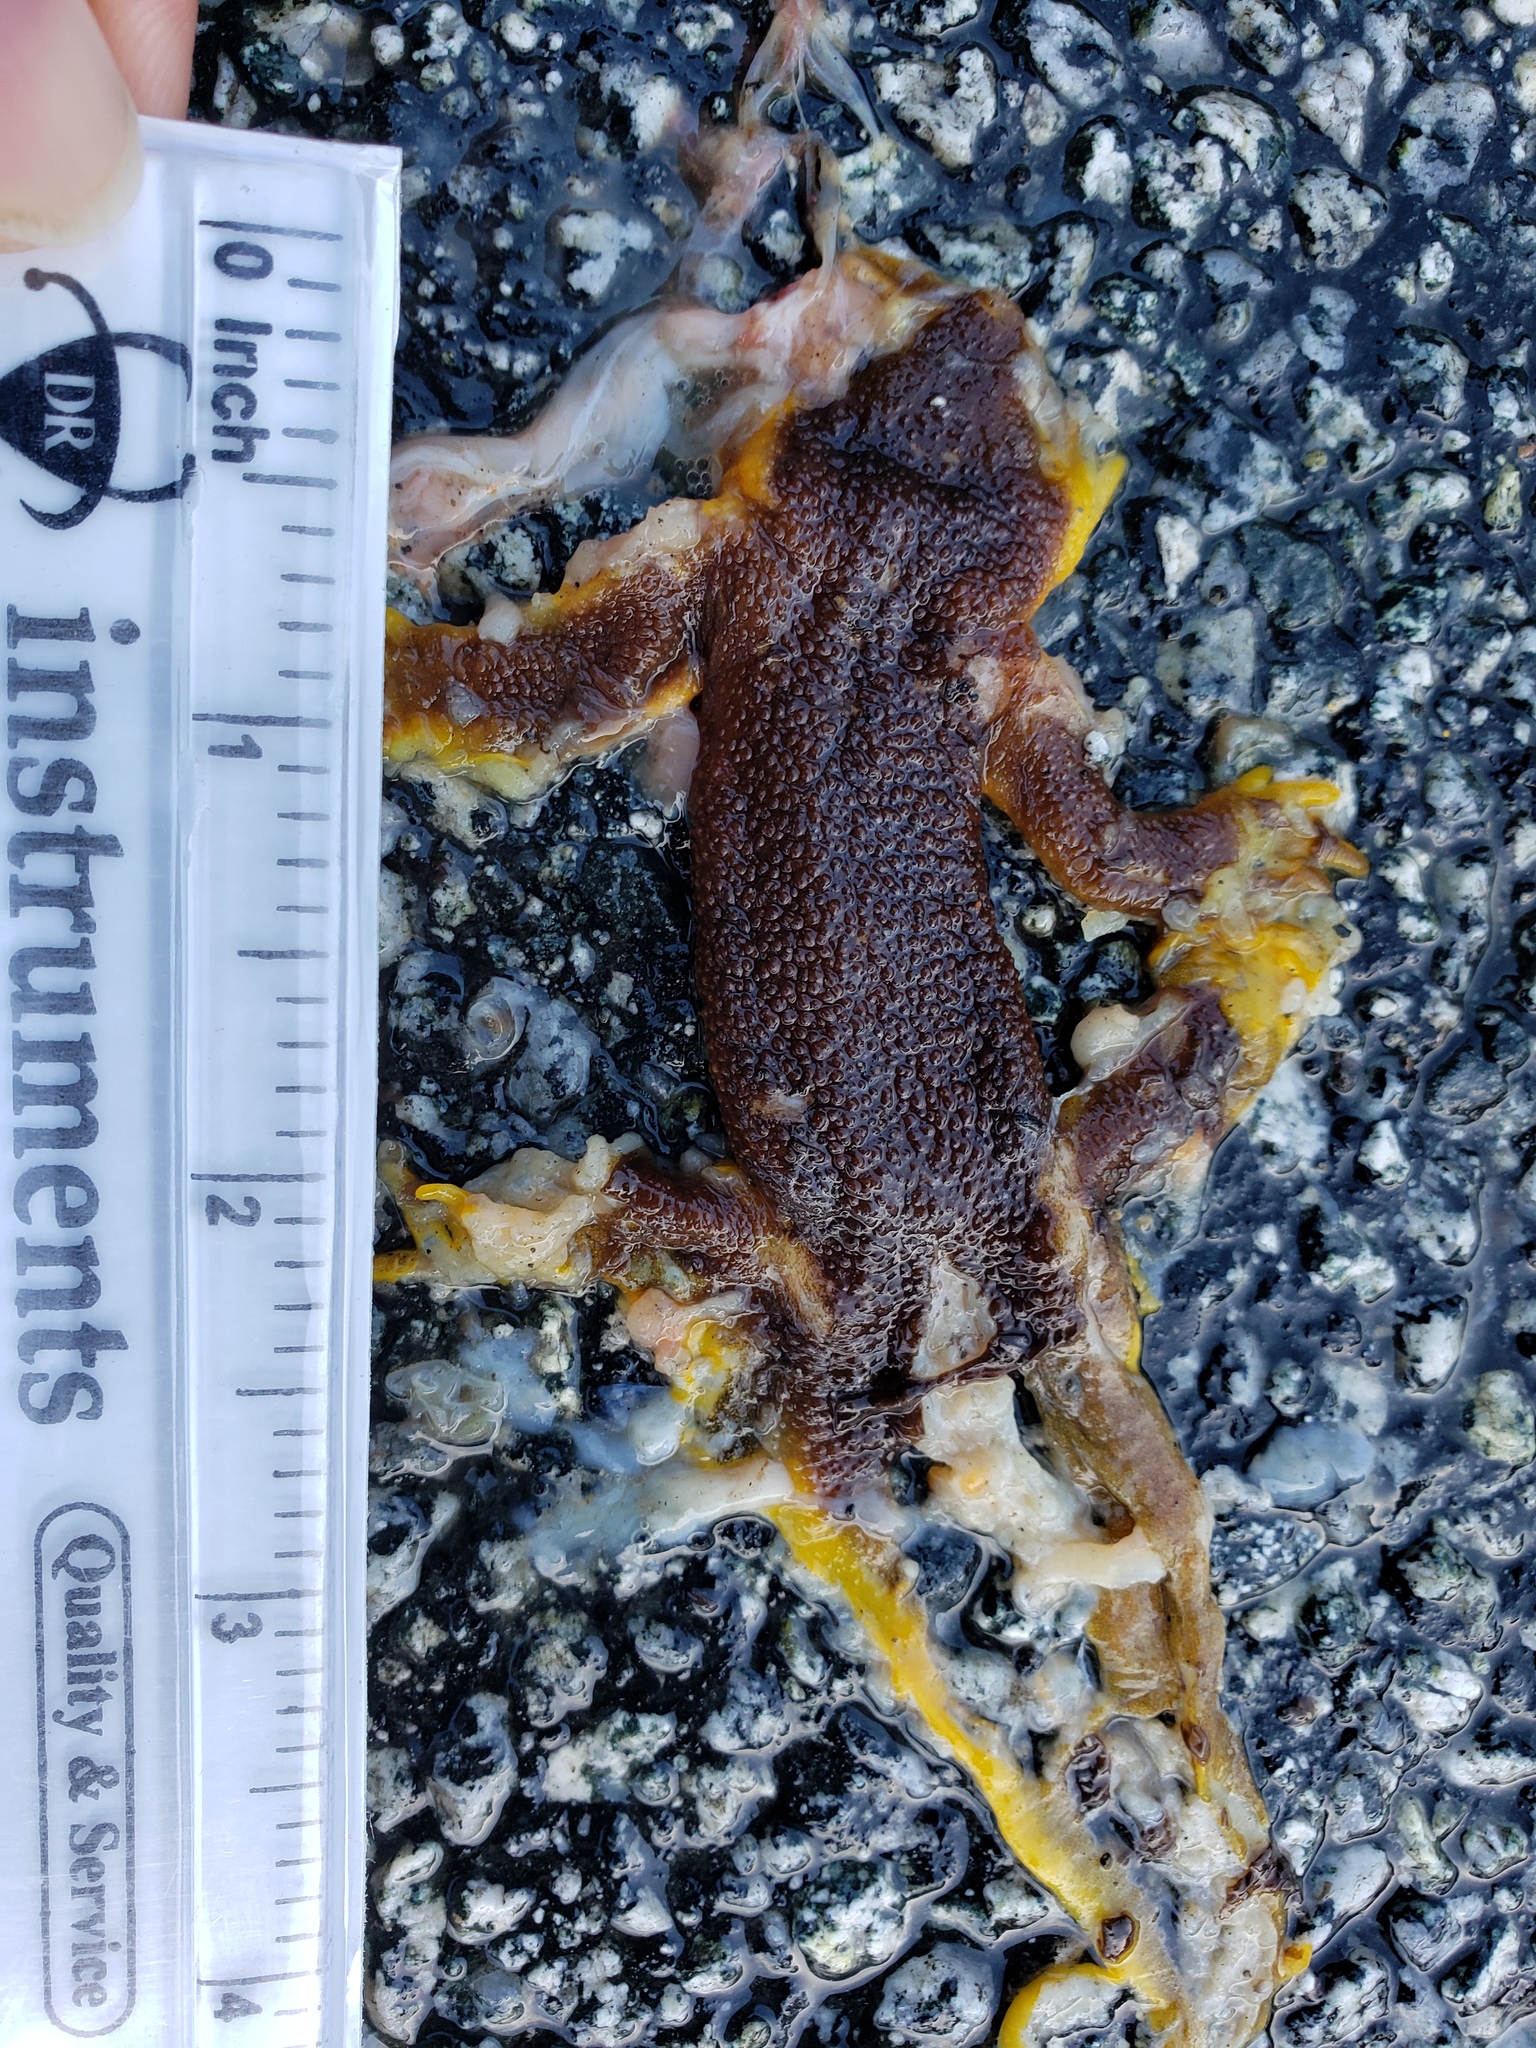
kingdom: Animalia
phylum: Chordata
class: Amphibia
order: Caudata
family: Salamandridae
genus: Taricha
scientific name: Taricha
